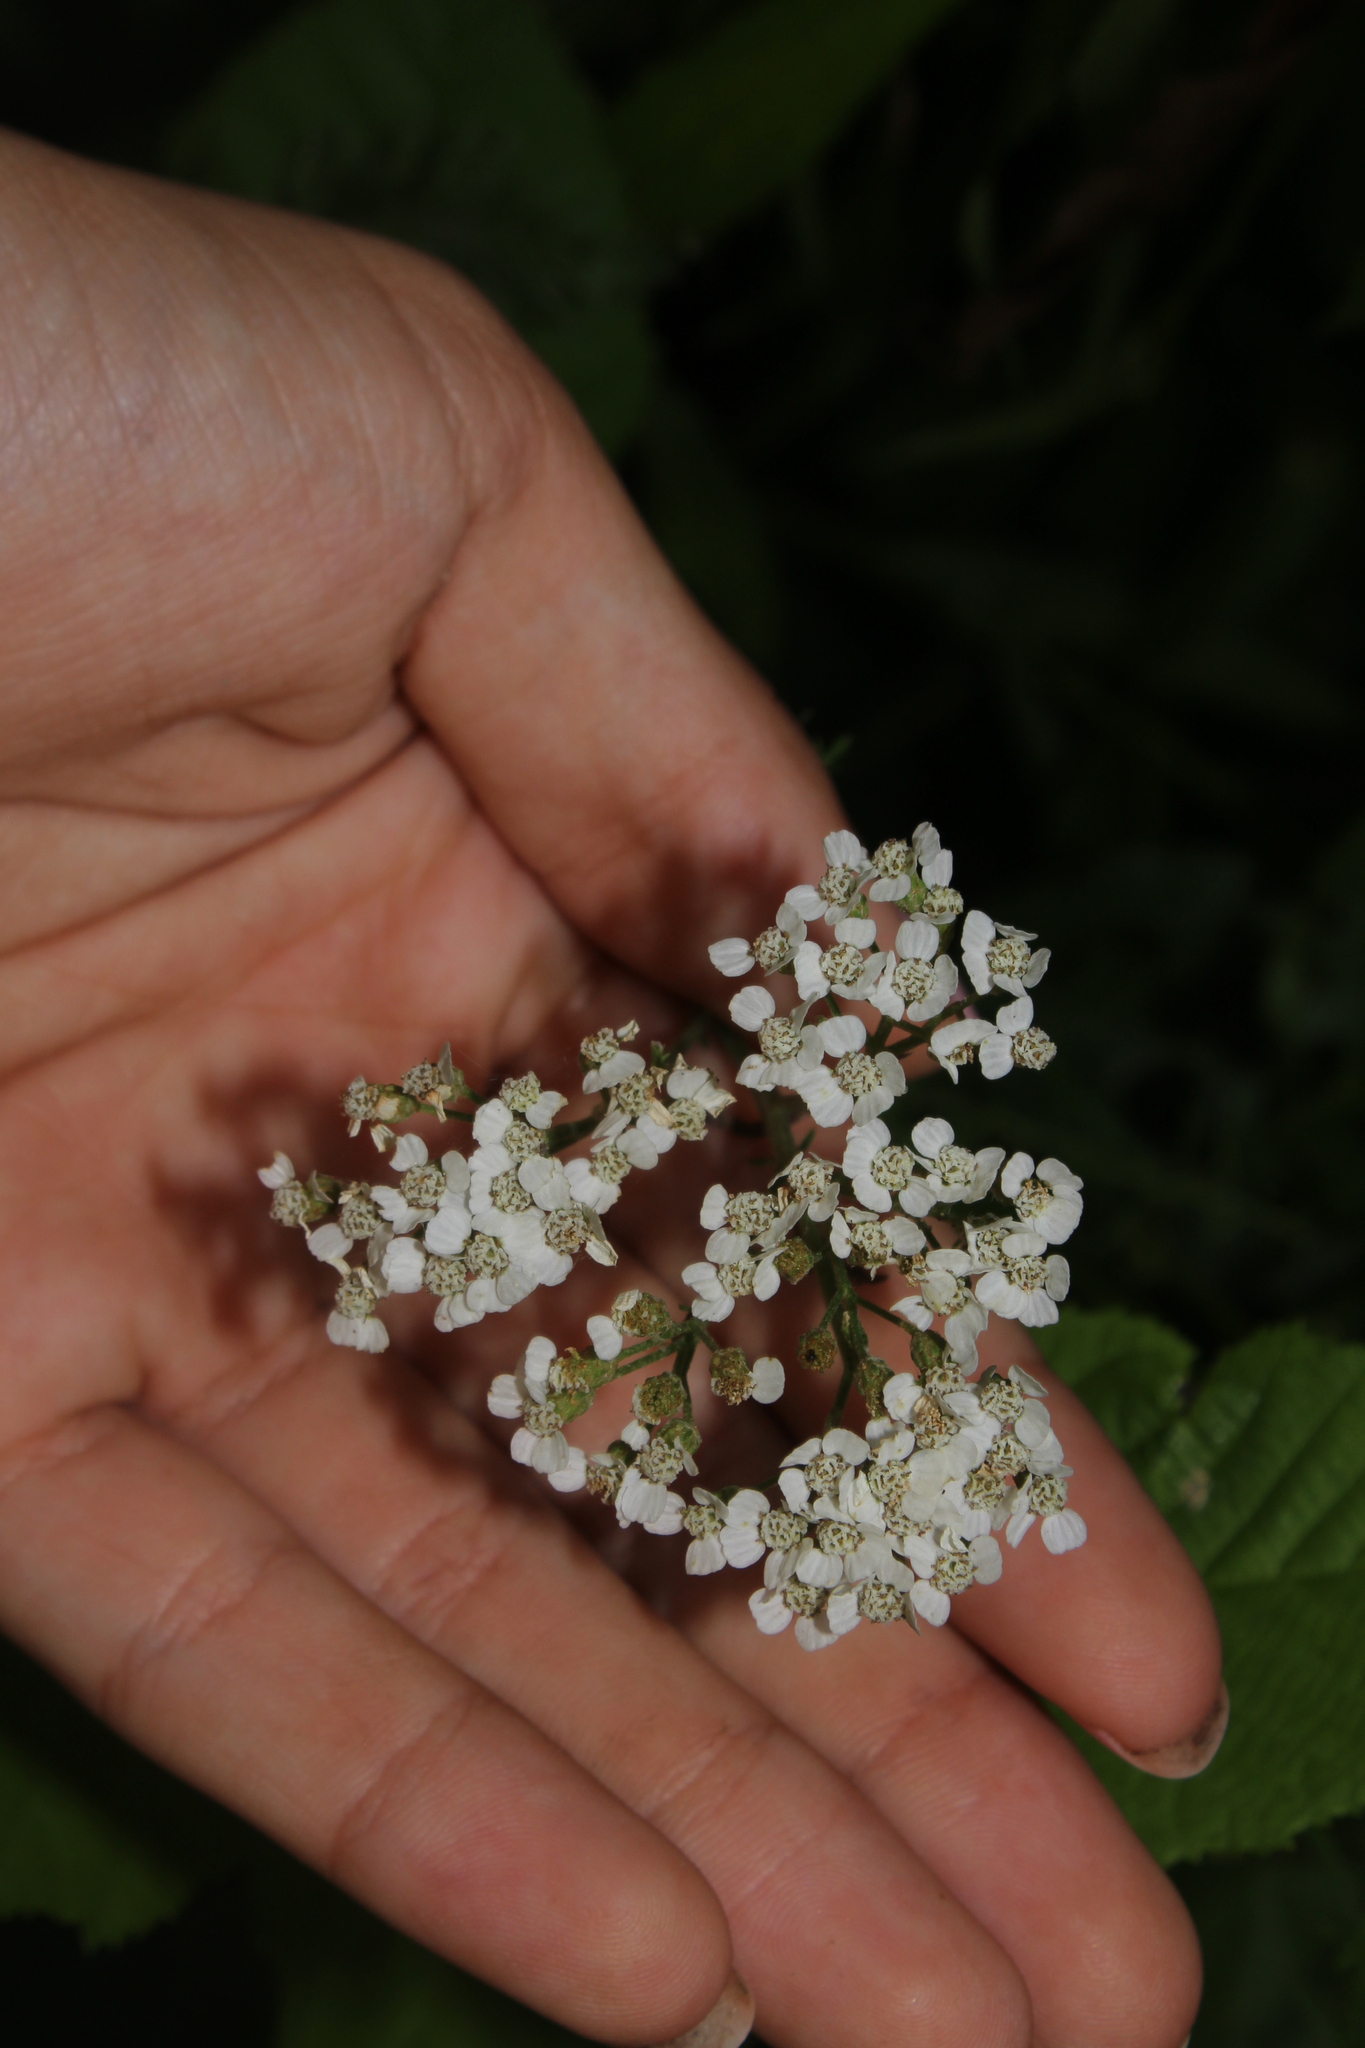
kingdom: Plantae
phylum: Tracheophyta
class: Magnoliopsida
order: Asterales
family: Asteraceae
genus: Achillea
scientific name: Achillea millefolium
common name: Yarrow
